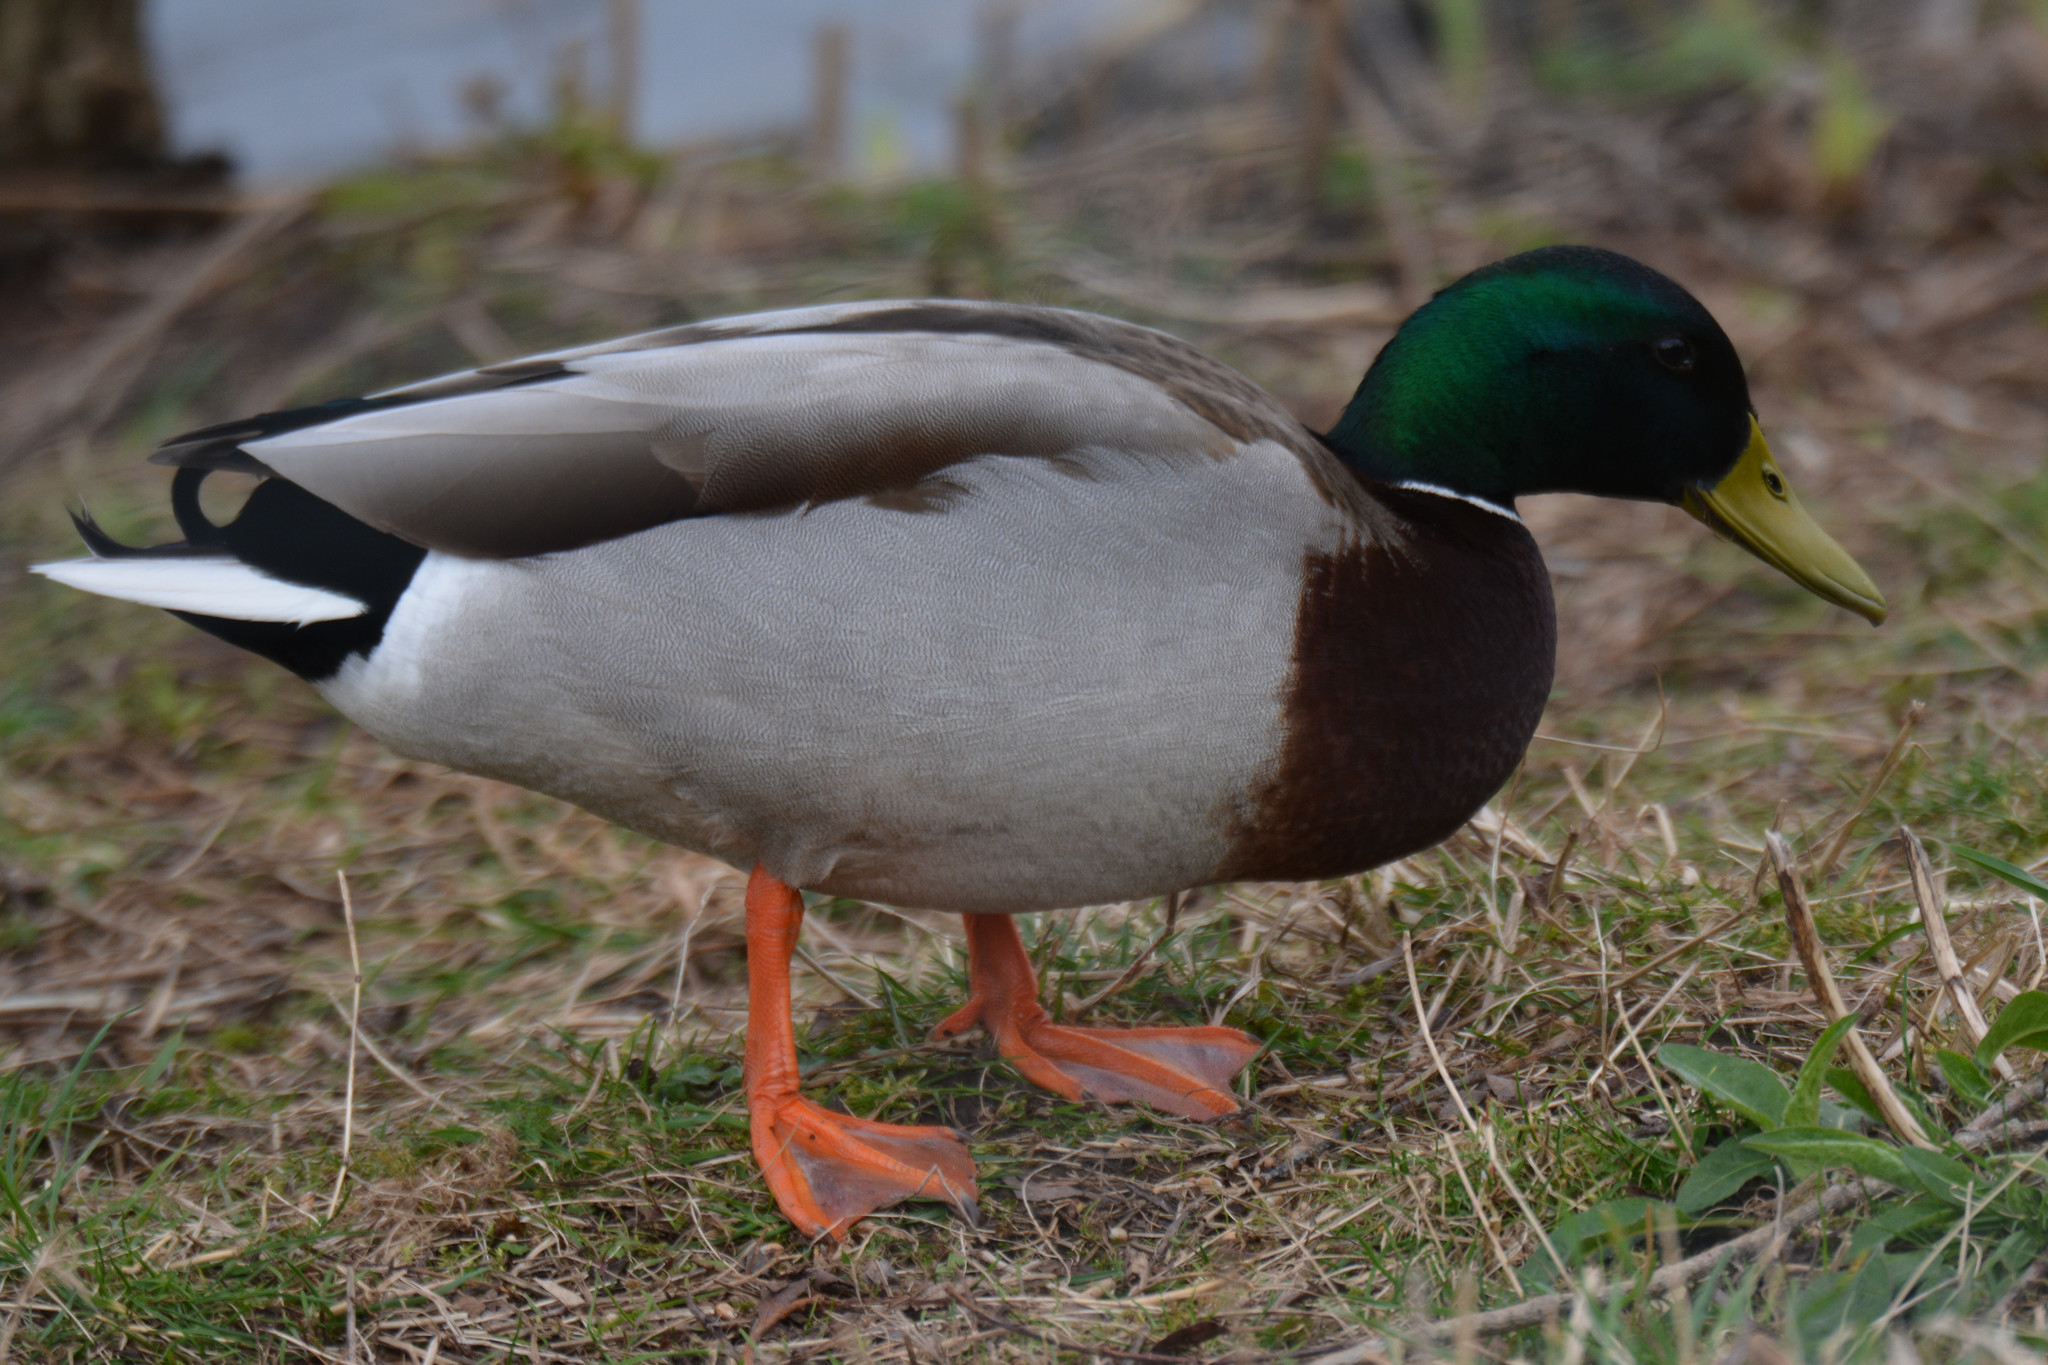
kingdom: Animalia
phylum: Chordata
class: Aves
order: Anseriformes
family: Anatidae
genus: Anas
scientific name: Anas platyrhynchos
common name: Mallard
